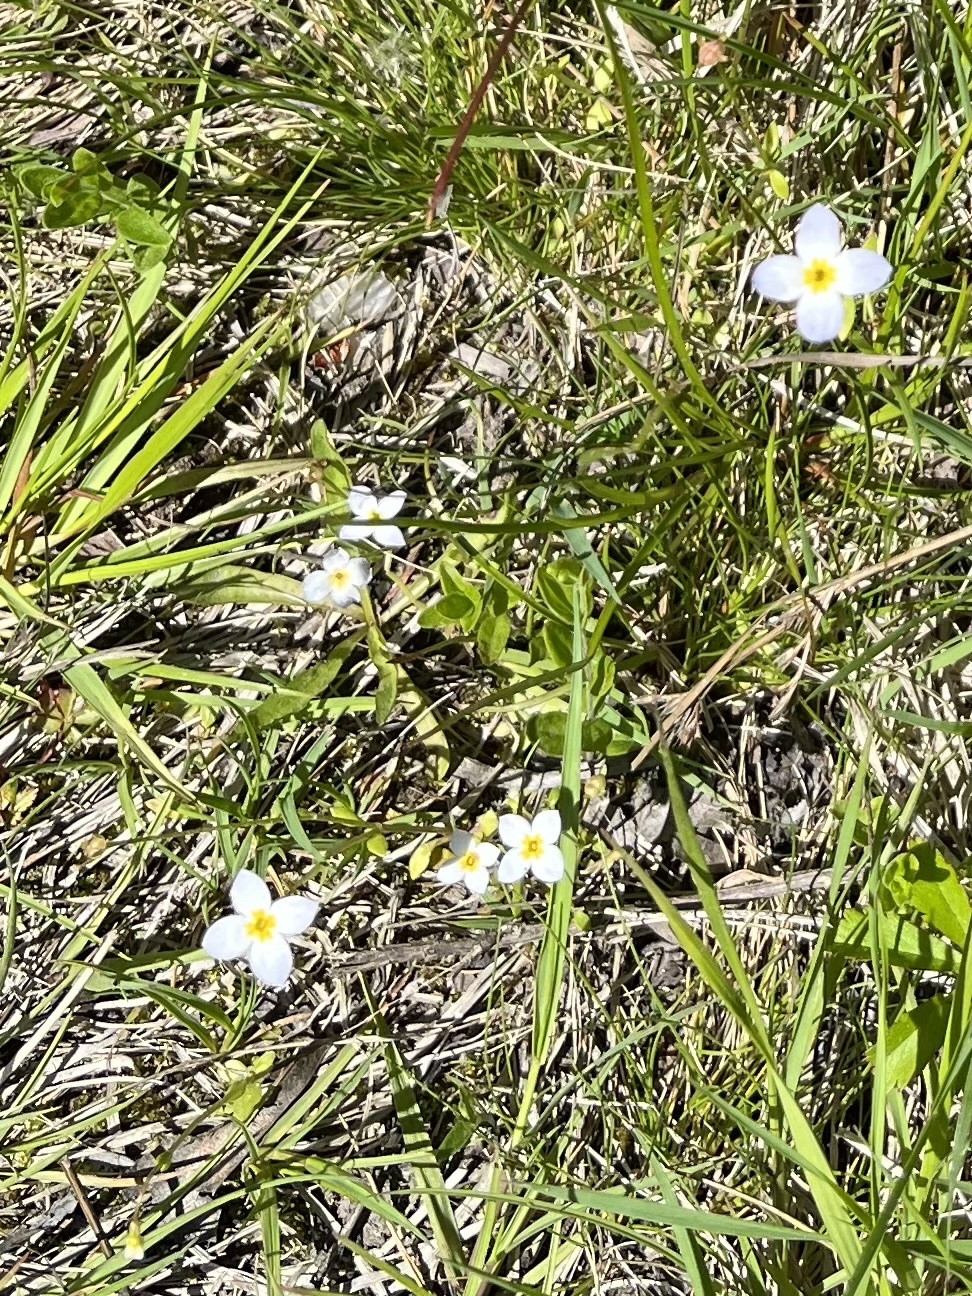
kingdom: Plantae
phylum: Tracheophyta
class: Magnoliopsida
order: Gentianales
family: Rubiaceae
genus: Houstonia
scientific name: Houstonia caerulea
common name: Bluets
